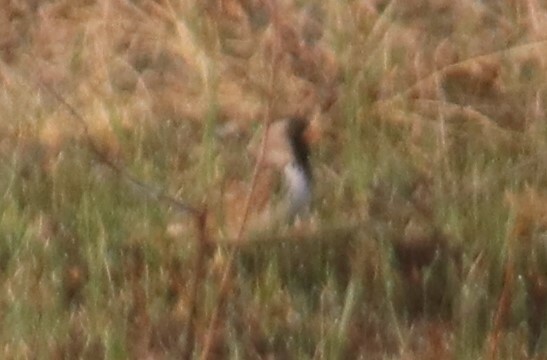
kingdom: Animalia
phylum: Chordata
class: Aves
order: Passeriformes
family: Passerellidae
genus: Zonotrichia
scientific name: Zonotrichia querula
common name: Harris's sparrow
